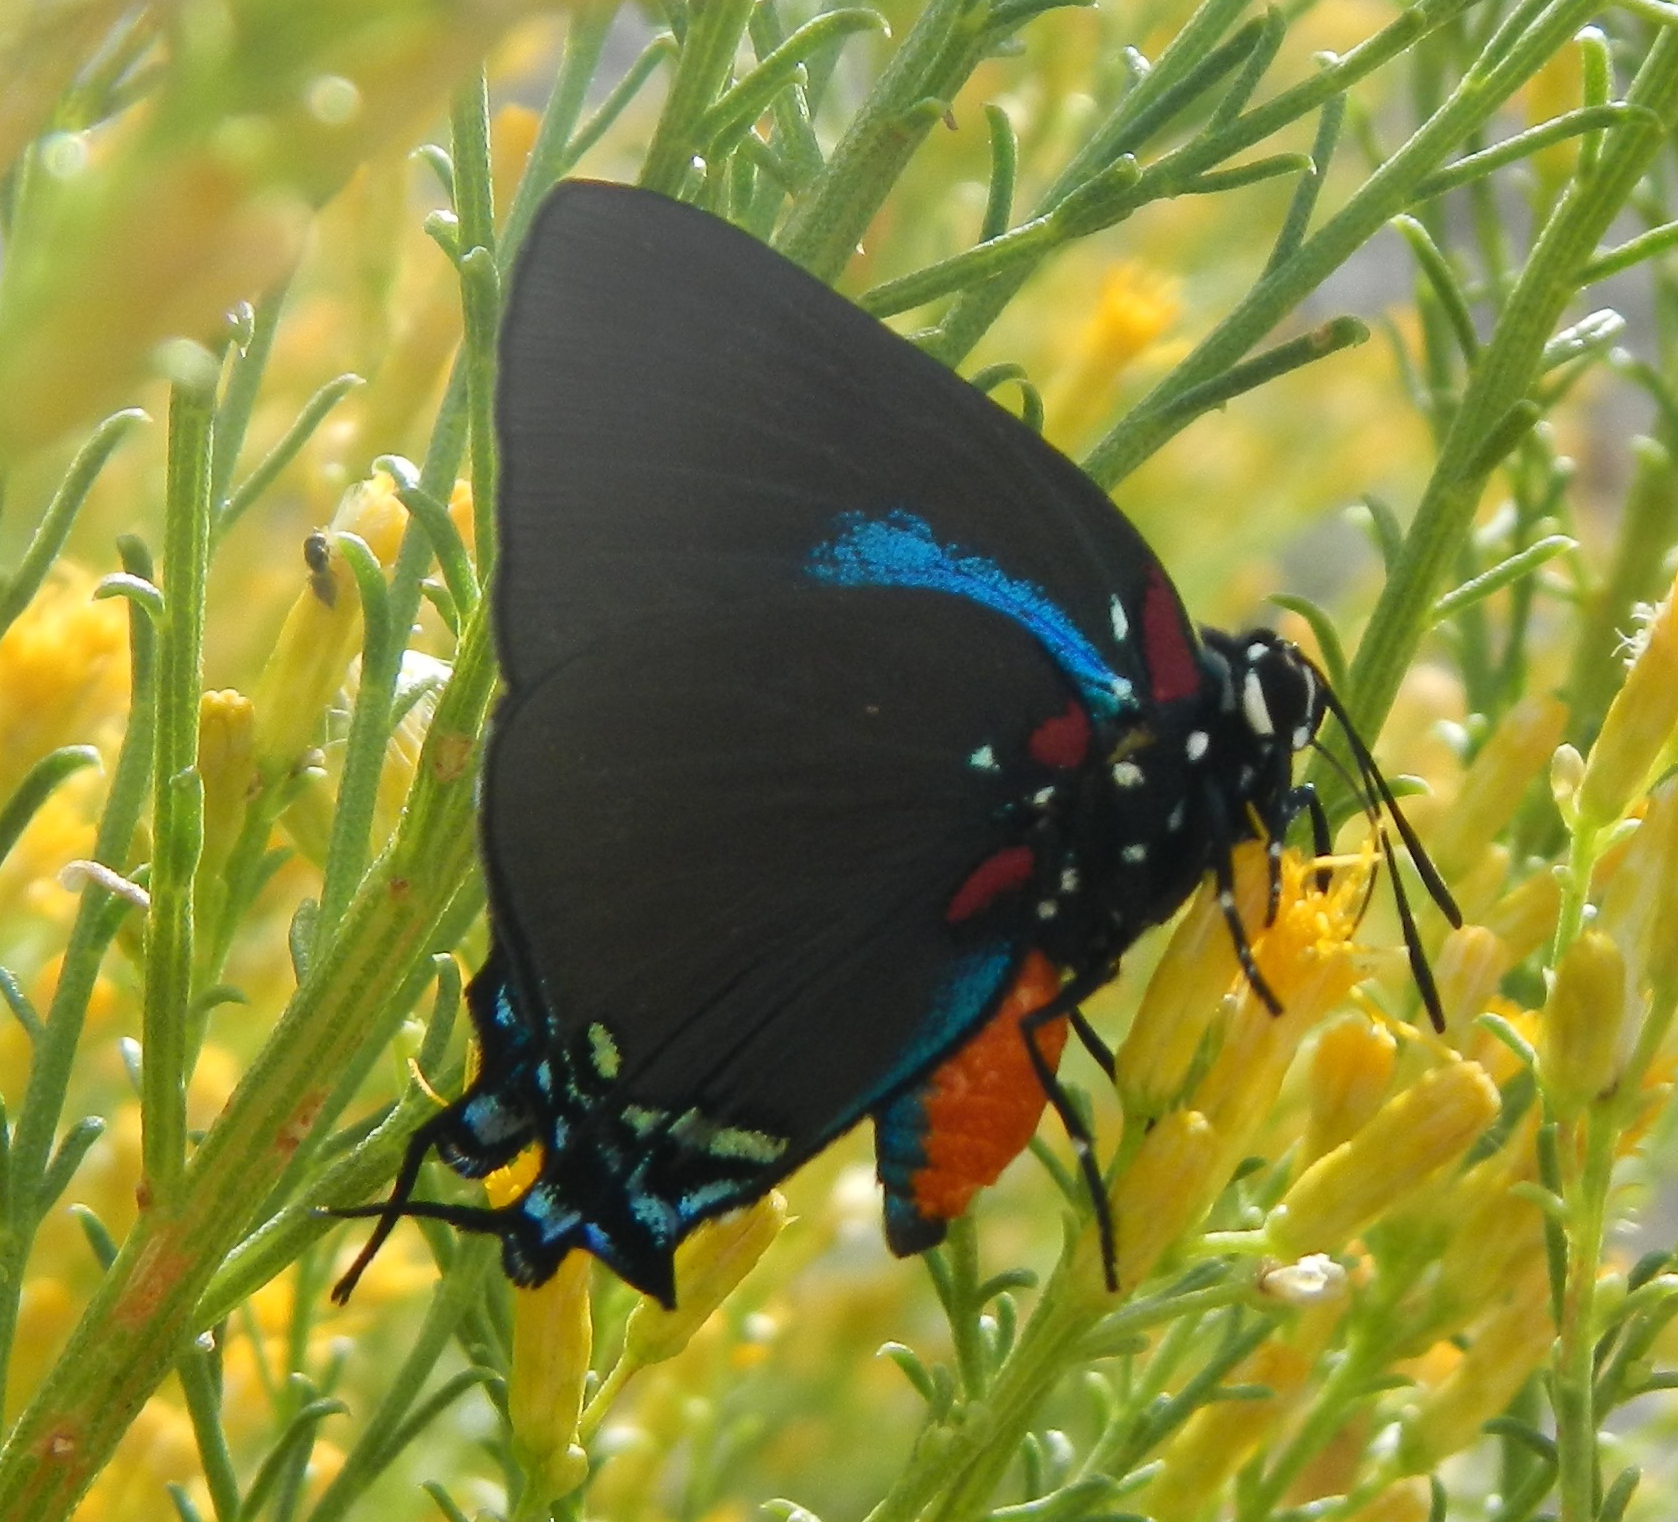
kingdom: Animalia
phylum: Arthropoda
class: Insecta
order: Lepidoptera
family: Lycaenidae
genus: Atlides
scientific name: Atlides halesus
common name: Great purple hairstreak
